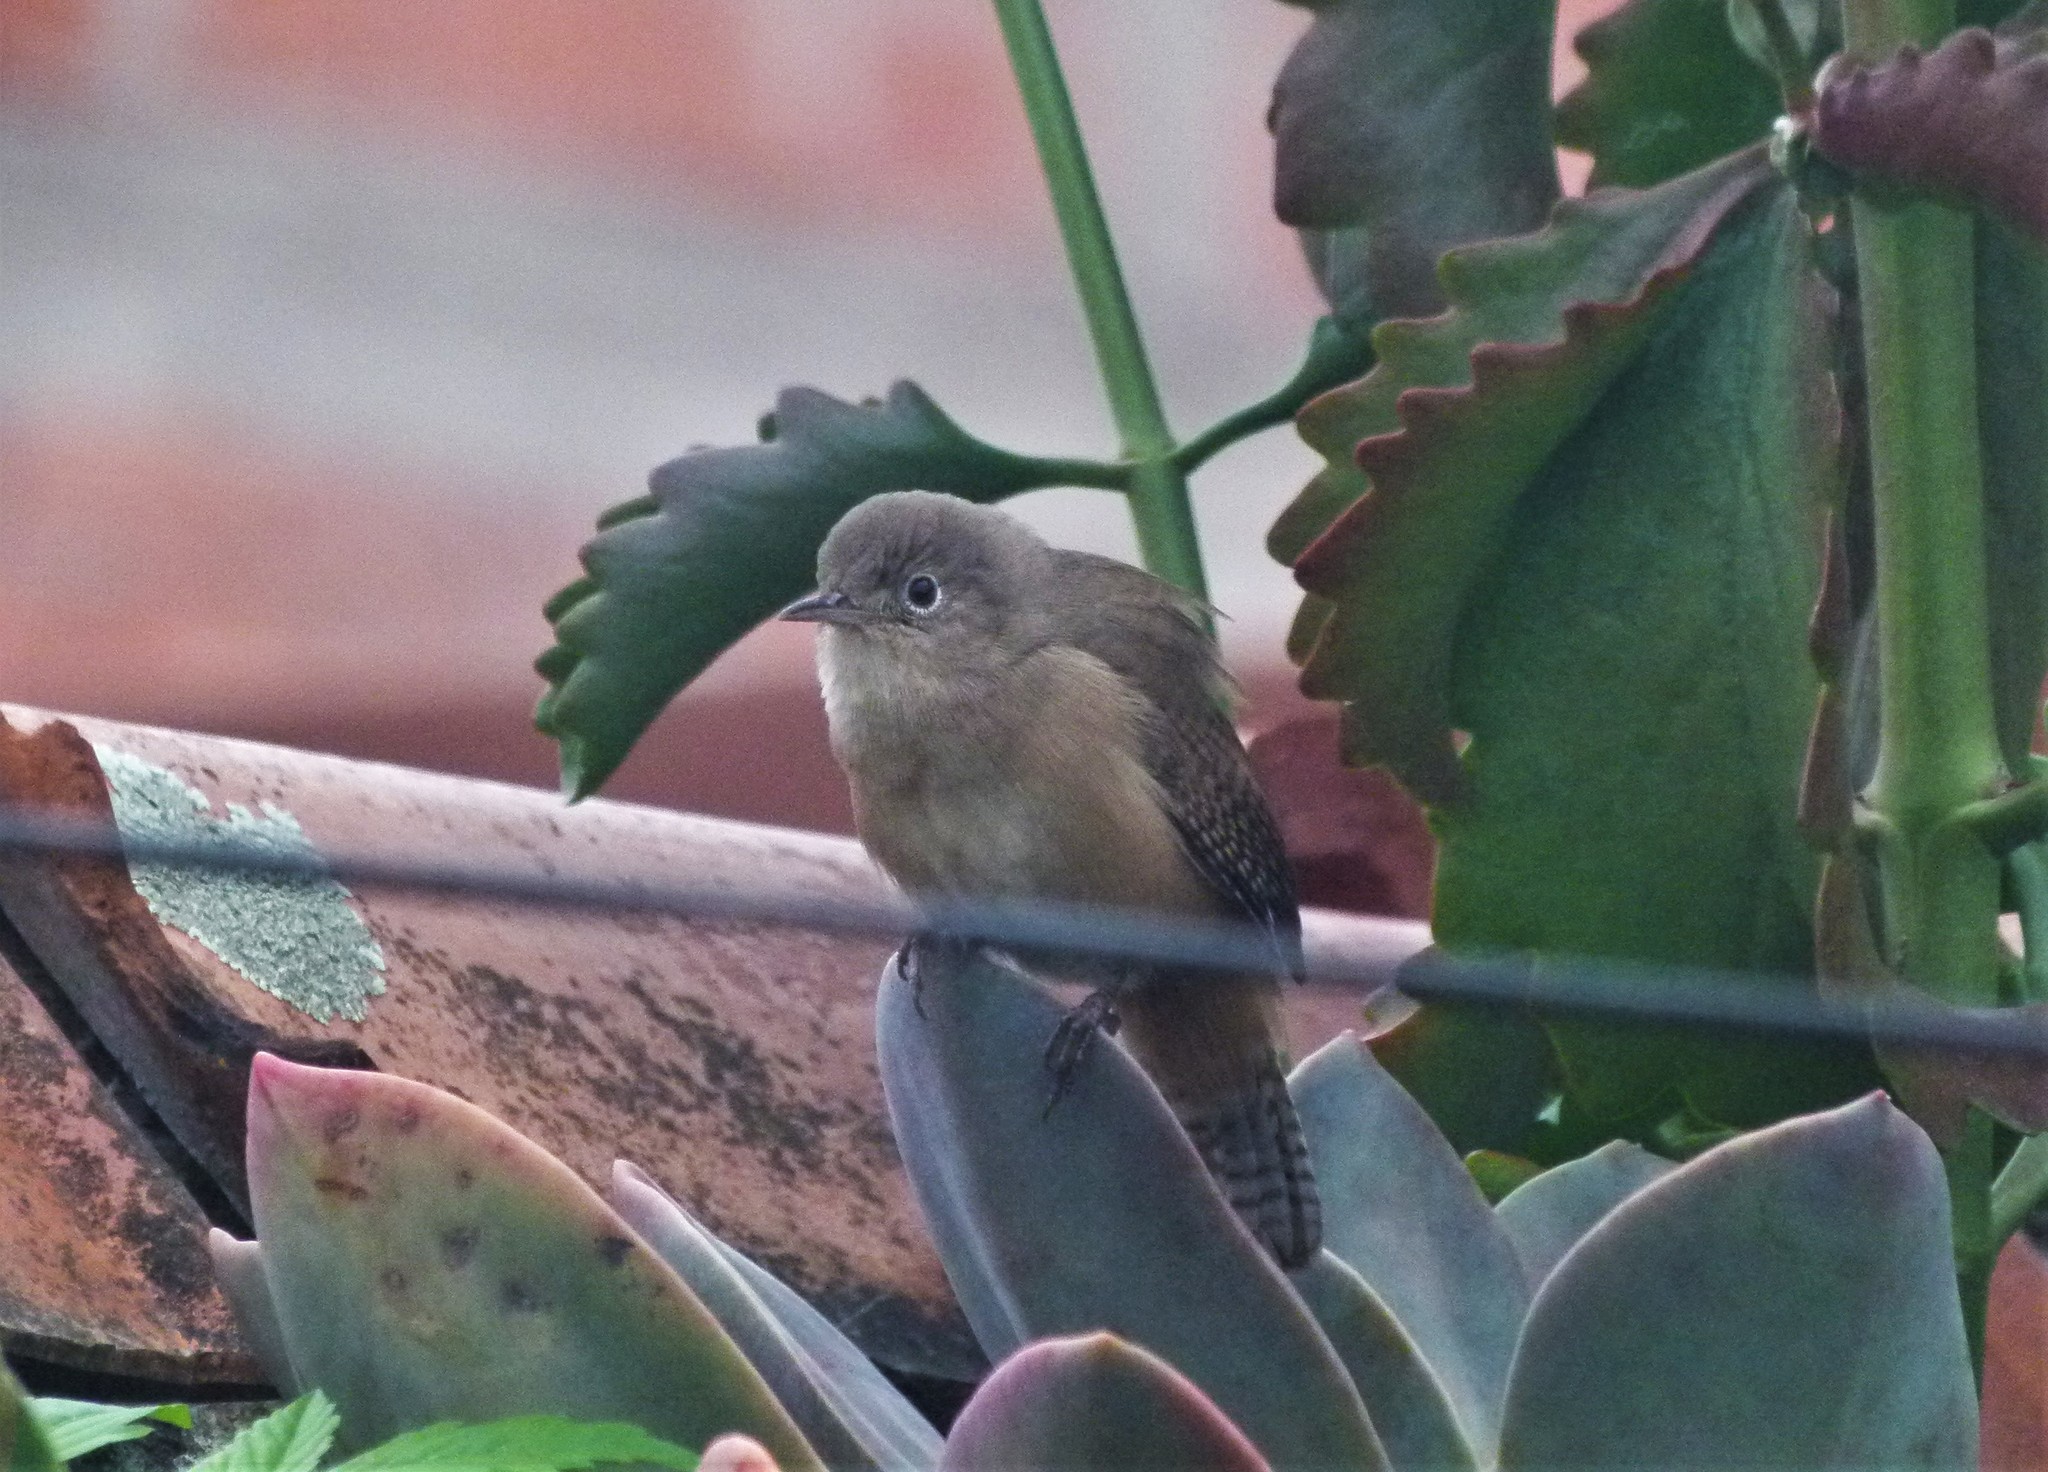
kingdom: Animalia
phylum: Chordata
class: Aves
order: Passeriformes
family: Troglodytidae
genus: Troglodytes
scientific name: Troglodytes aedon
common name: House wren
